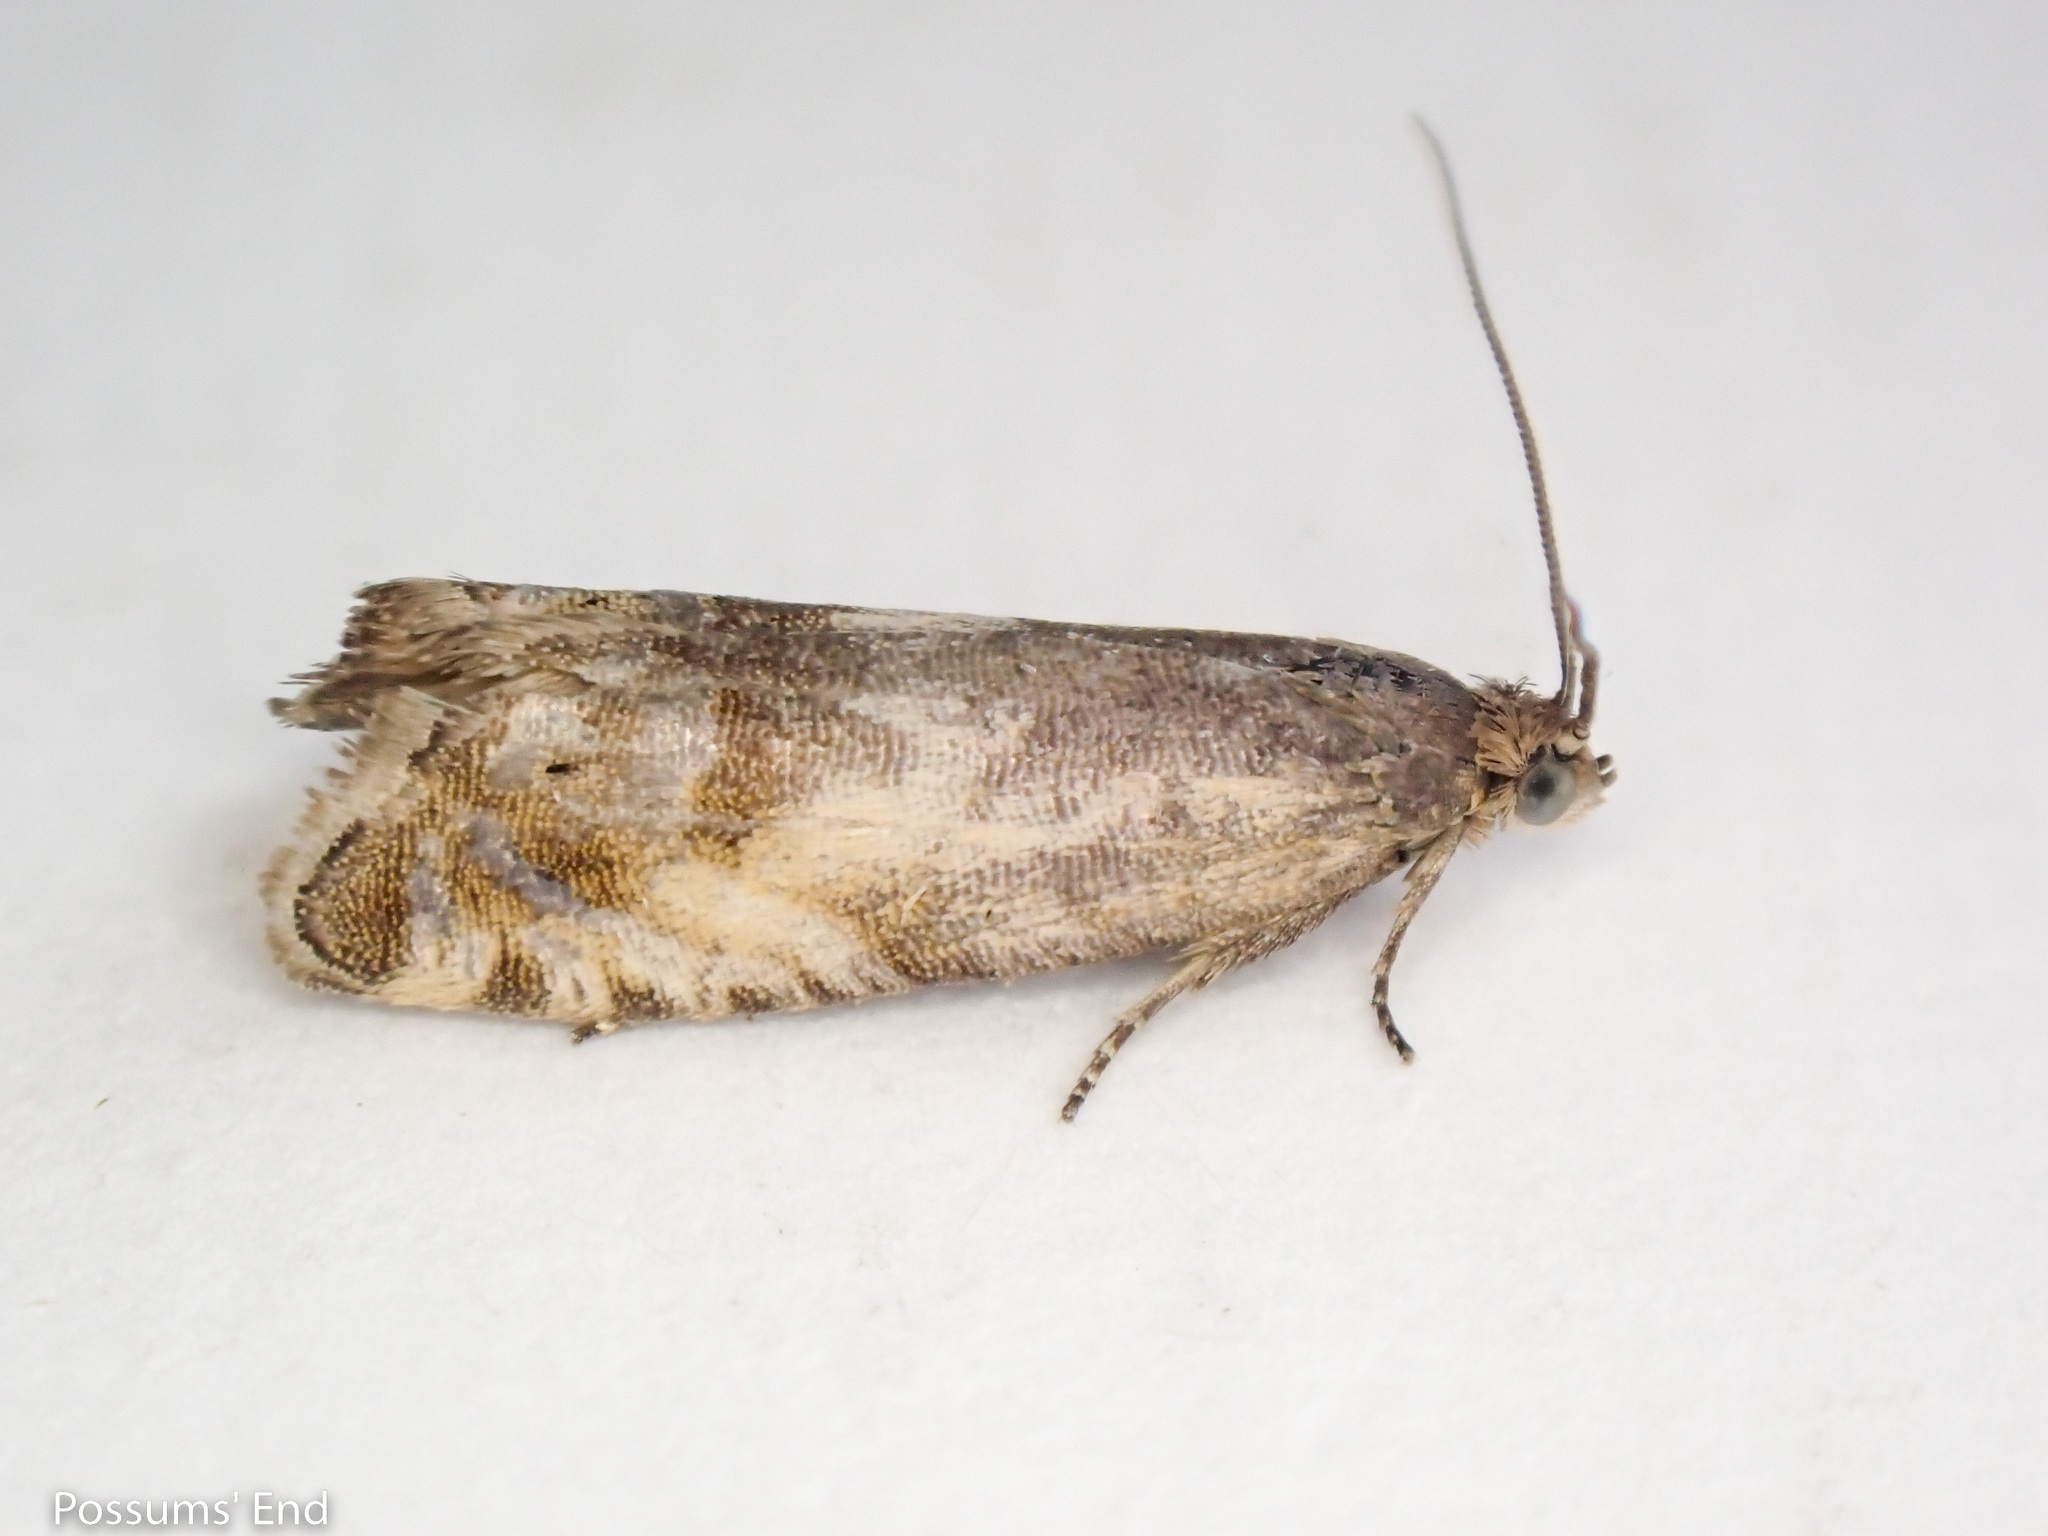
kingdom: Animalia
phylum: Arthropoda
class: Insecta
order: Lepidoptera
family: Tortricidae
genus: Cydia
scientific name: Cydia succedana
